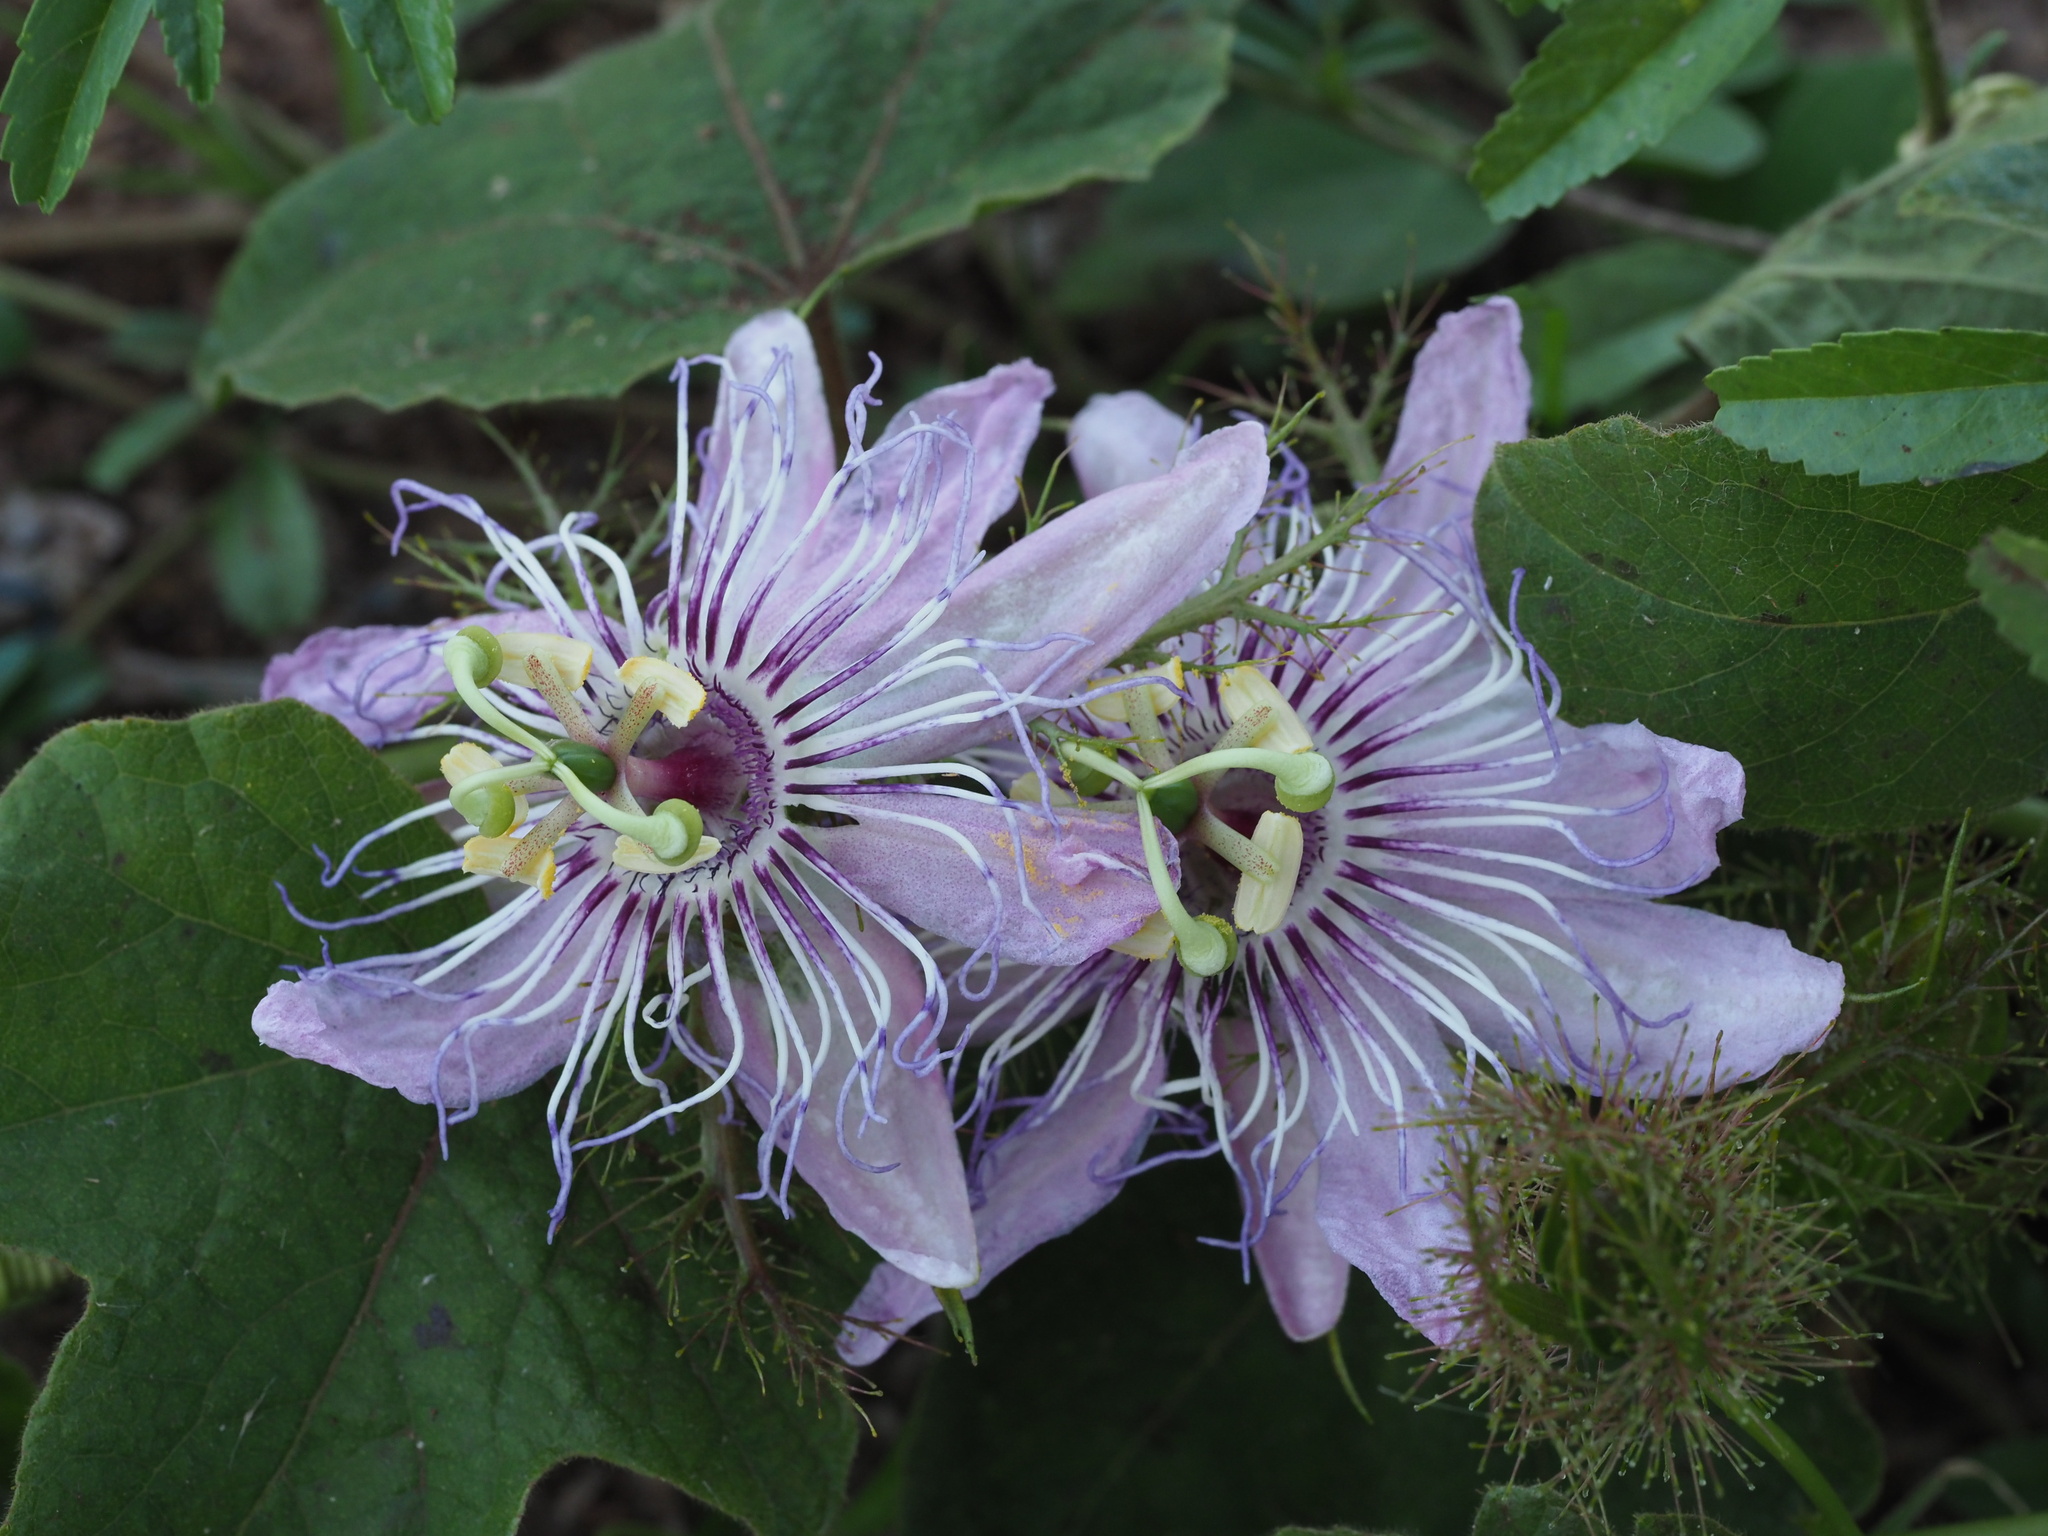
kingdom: Plantae
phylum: Tracheophyta
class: Magnoliopsida
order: Malpighiales
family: Passifloraceae
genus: Passiflora
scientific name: Passiflora foetida
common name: Fetid passionflower
